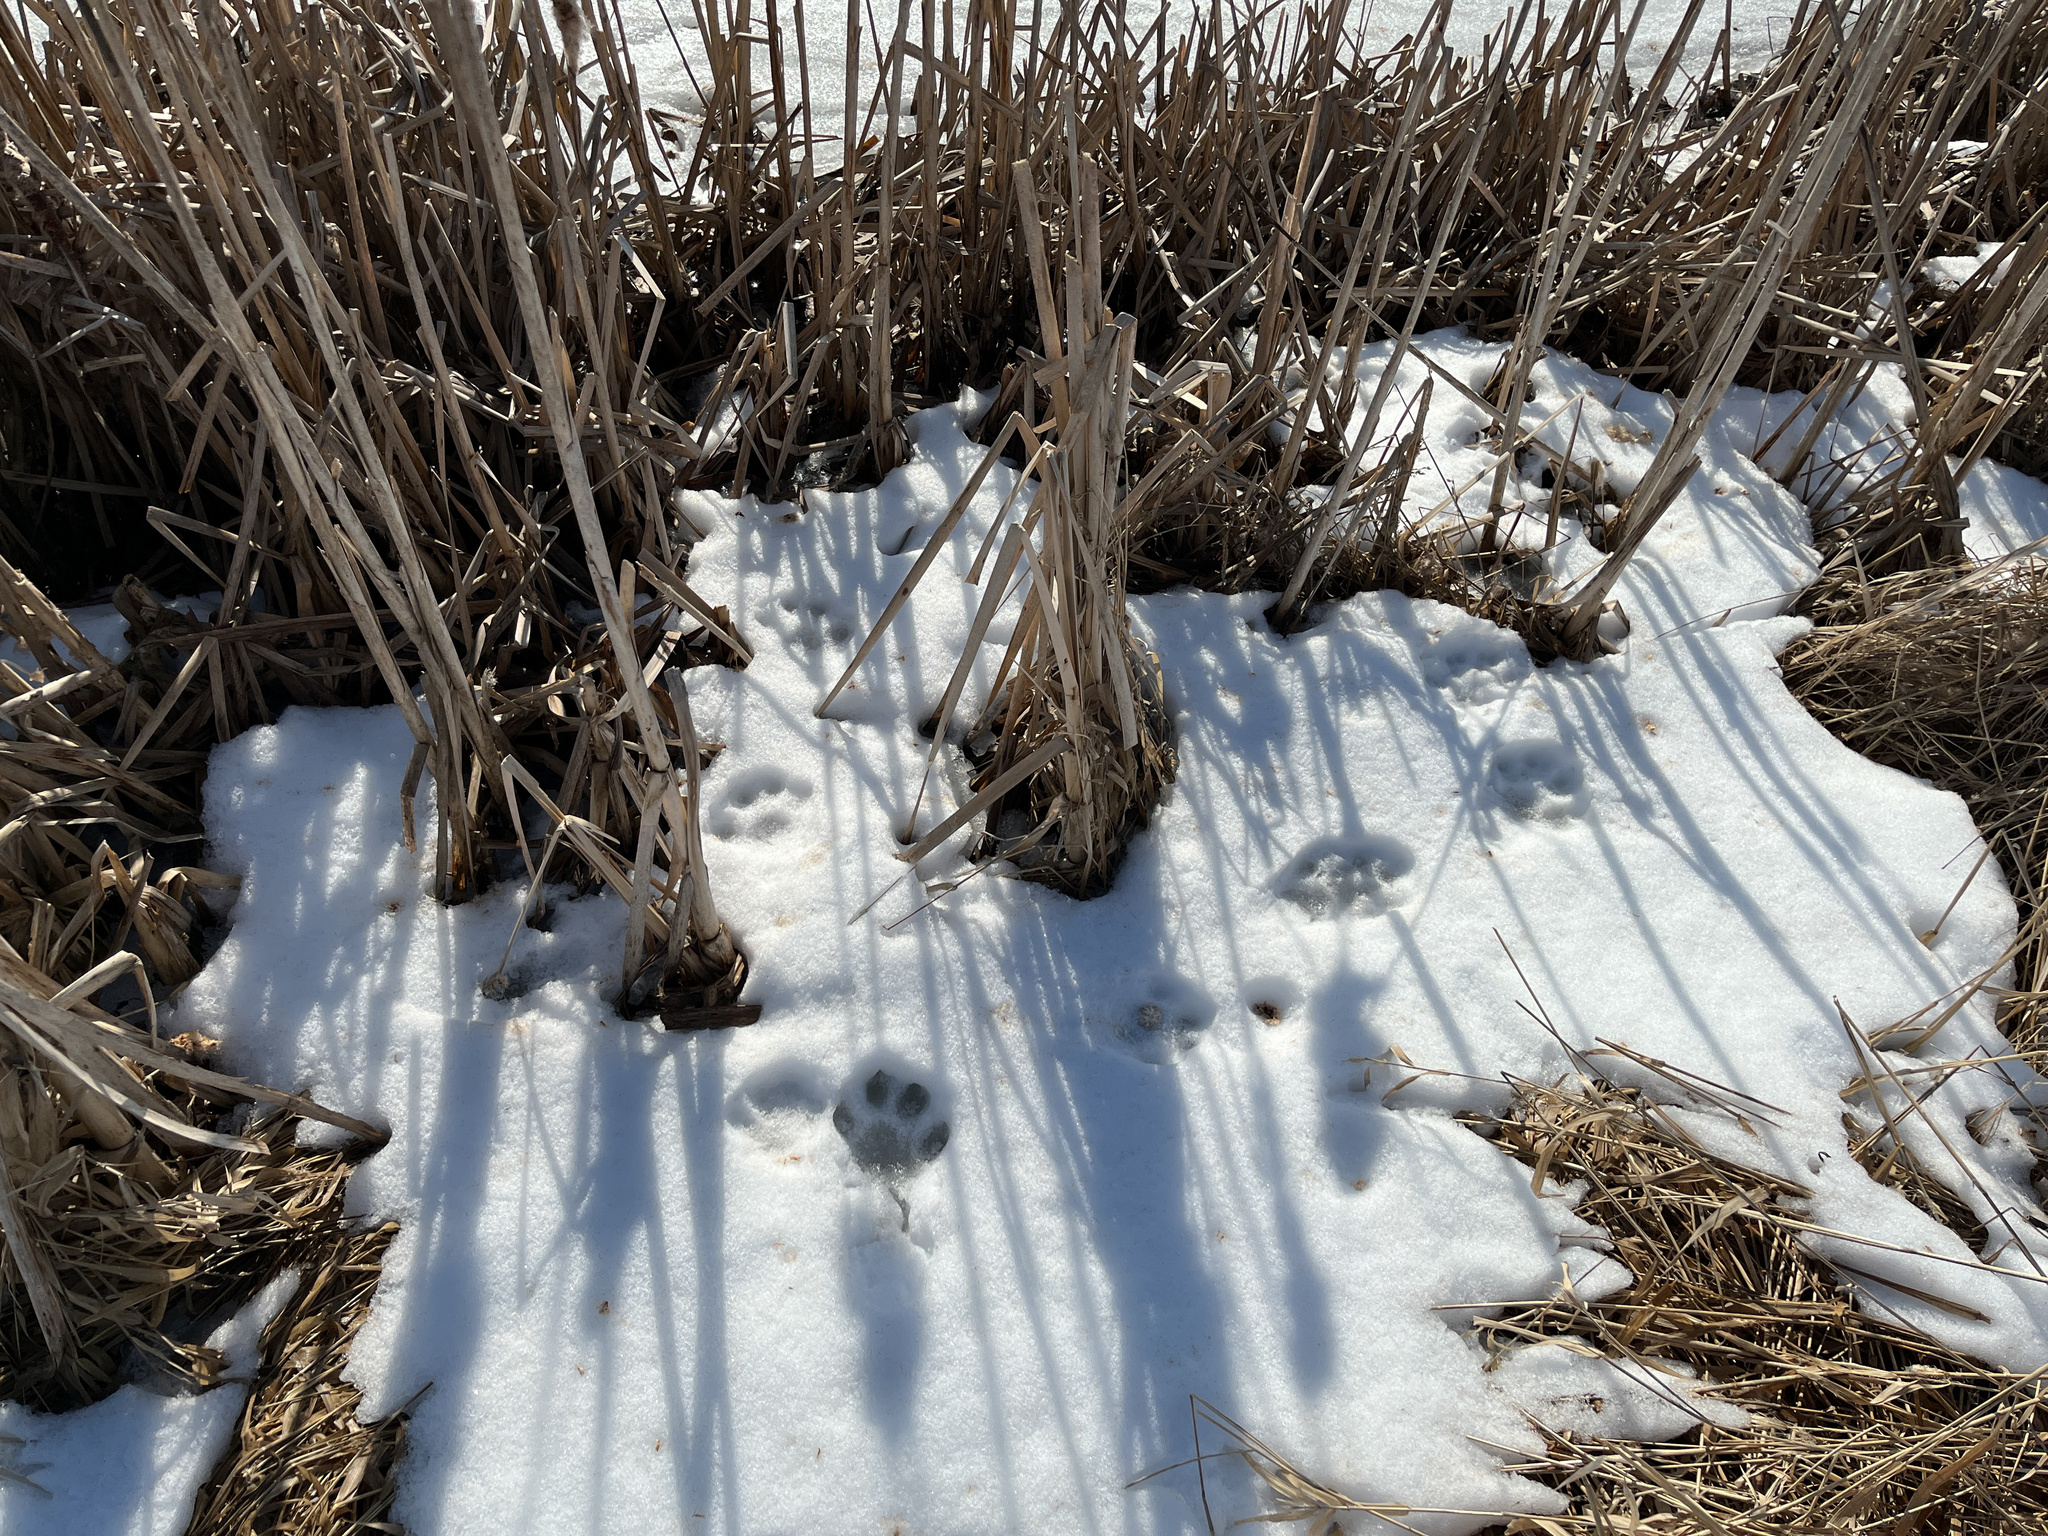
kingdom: Animalia
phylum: Chordata
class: Mammalia
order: Carnivora
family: Felidae
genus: Lynx
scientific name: Lynx lynx
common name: Eurasian lynx
